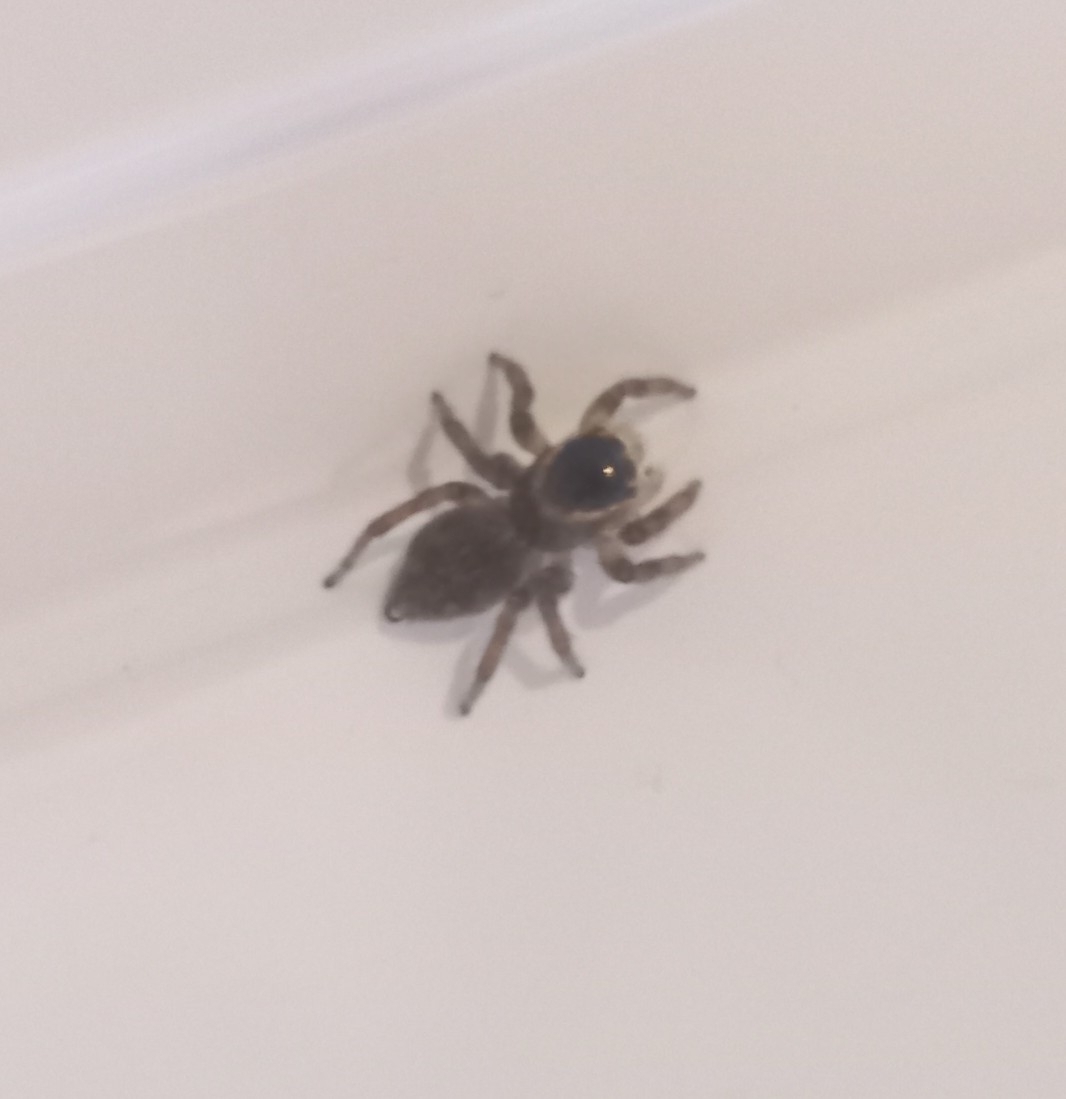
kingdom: Animalia
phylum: Arthropoda
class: Arachnida
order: Araneae
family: Salticidae
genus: Maratus
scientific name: Maratus griseus
